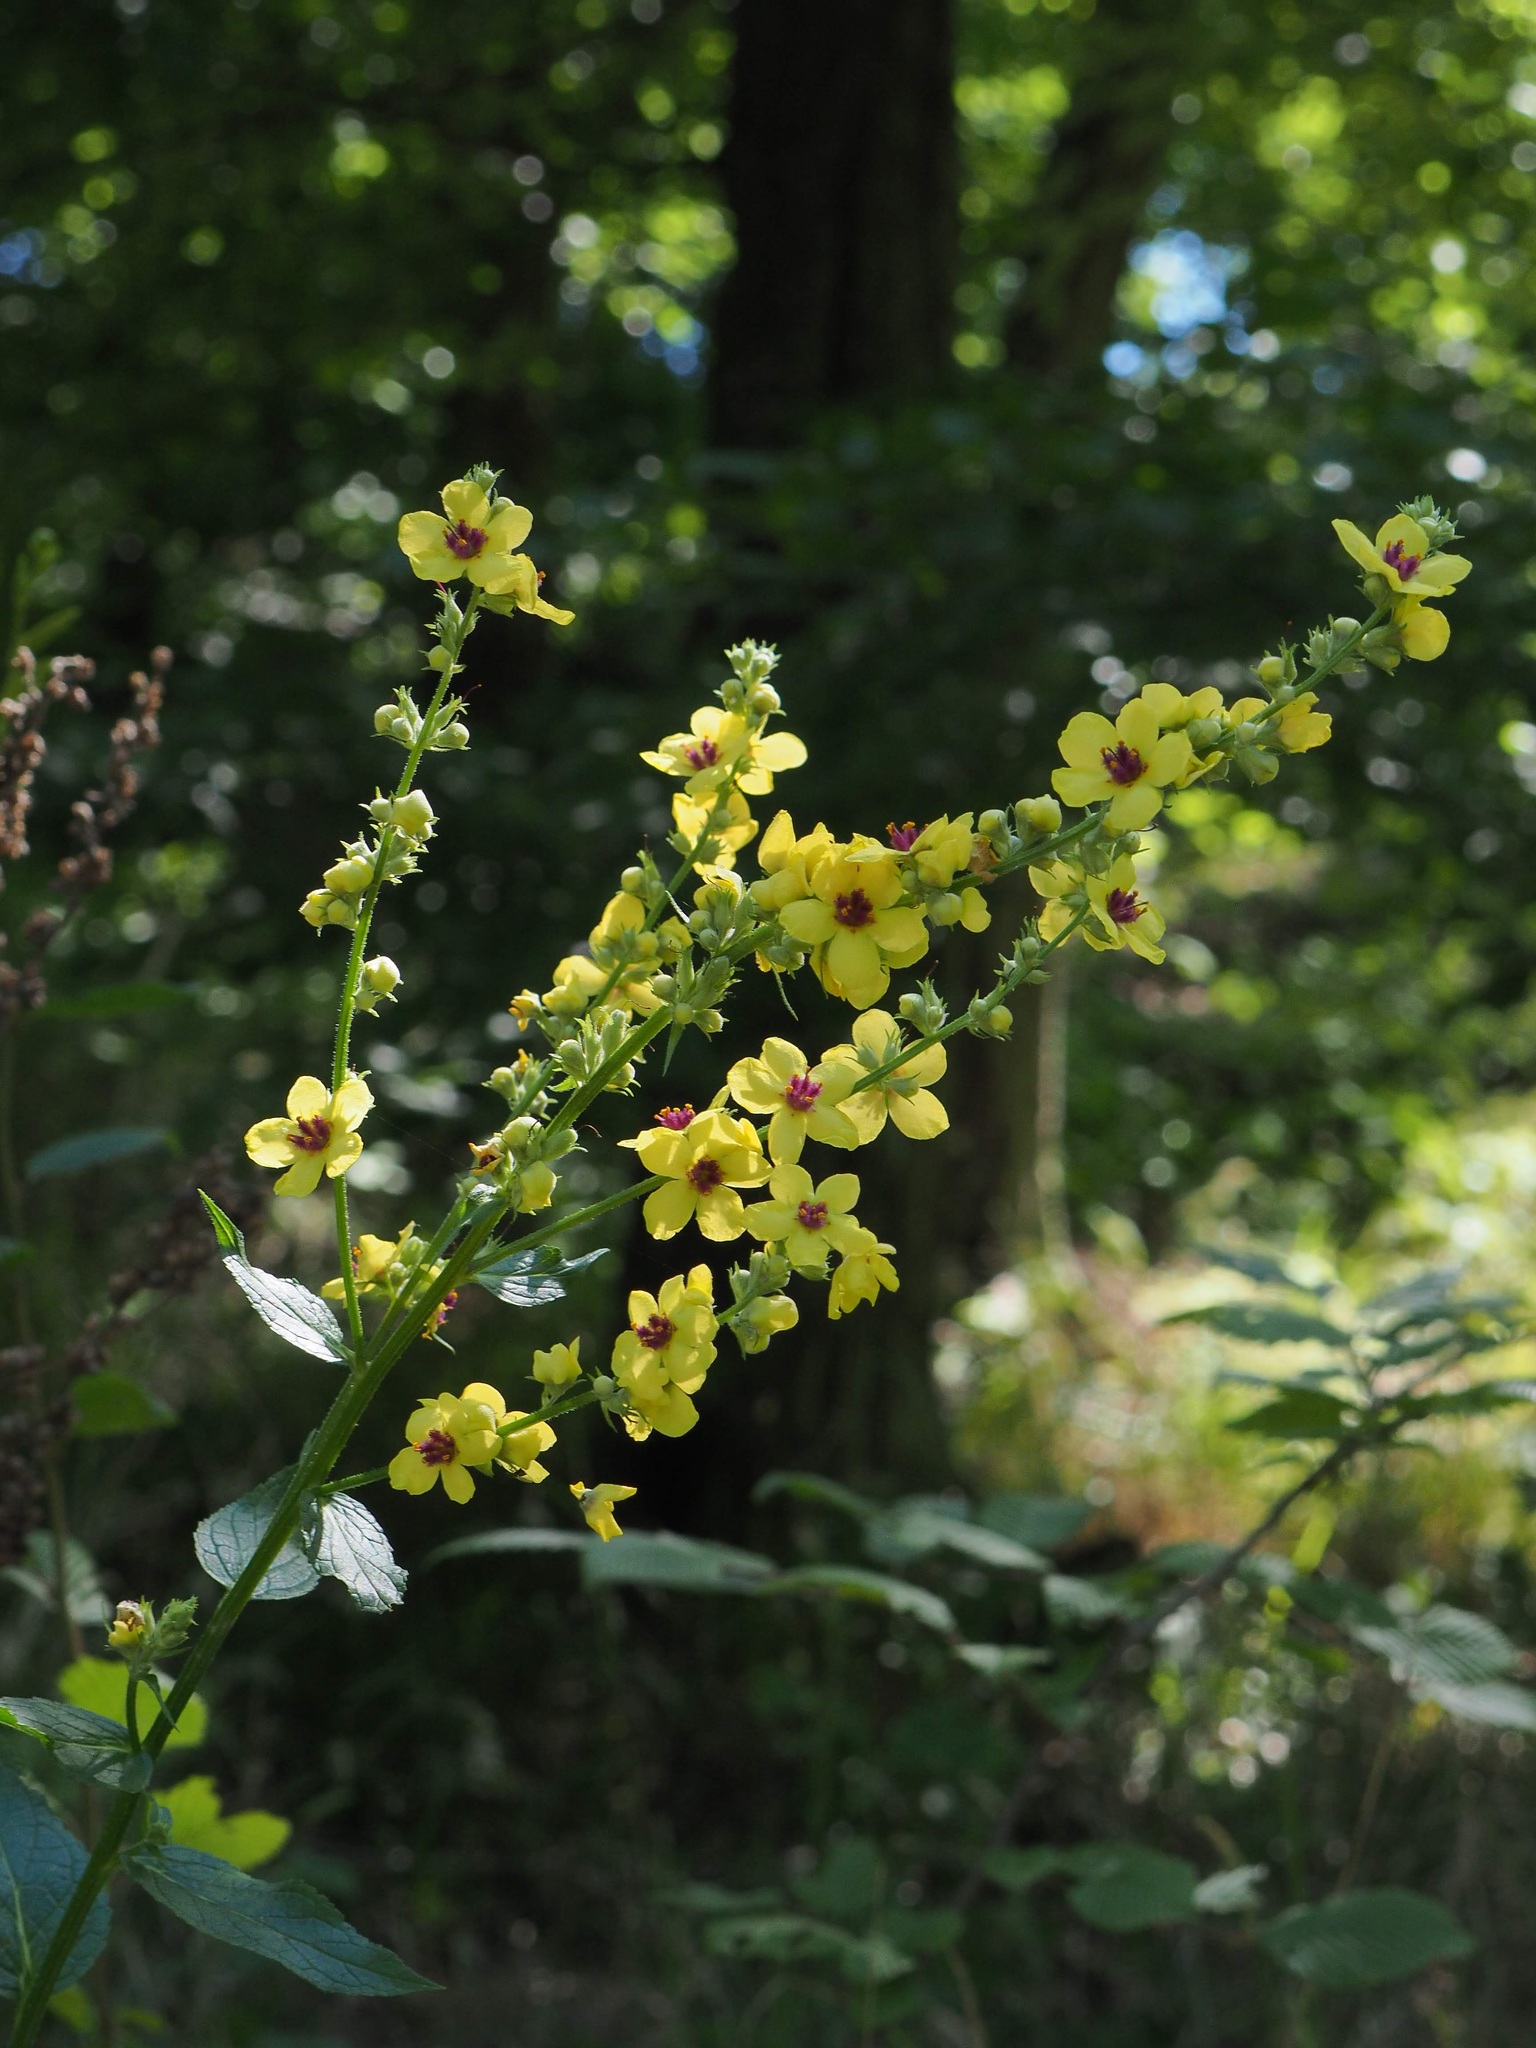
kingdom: Plantae
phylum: Tracheophyta
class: Magnoliopsida
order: Lamiales
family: Scrophulariaceae
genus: Verbascum
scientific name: Verbascum chaixii
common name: Nettle-leaved mullein
